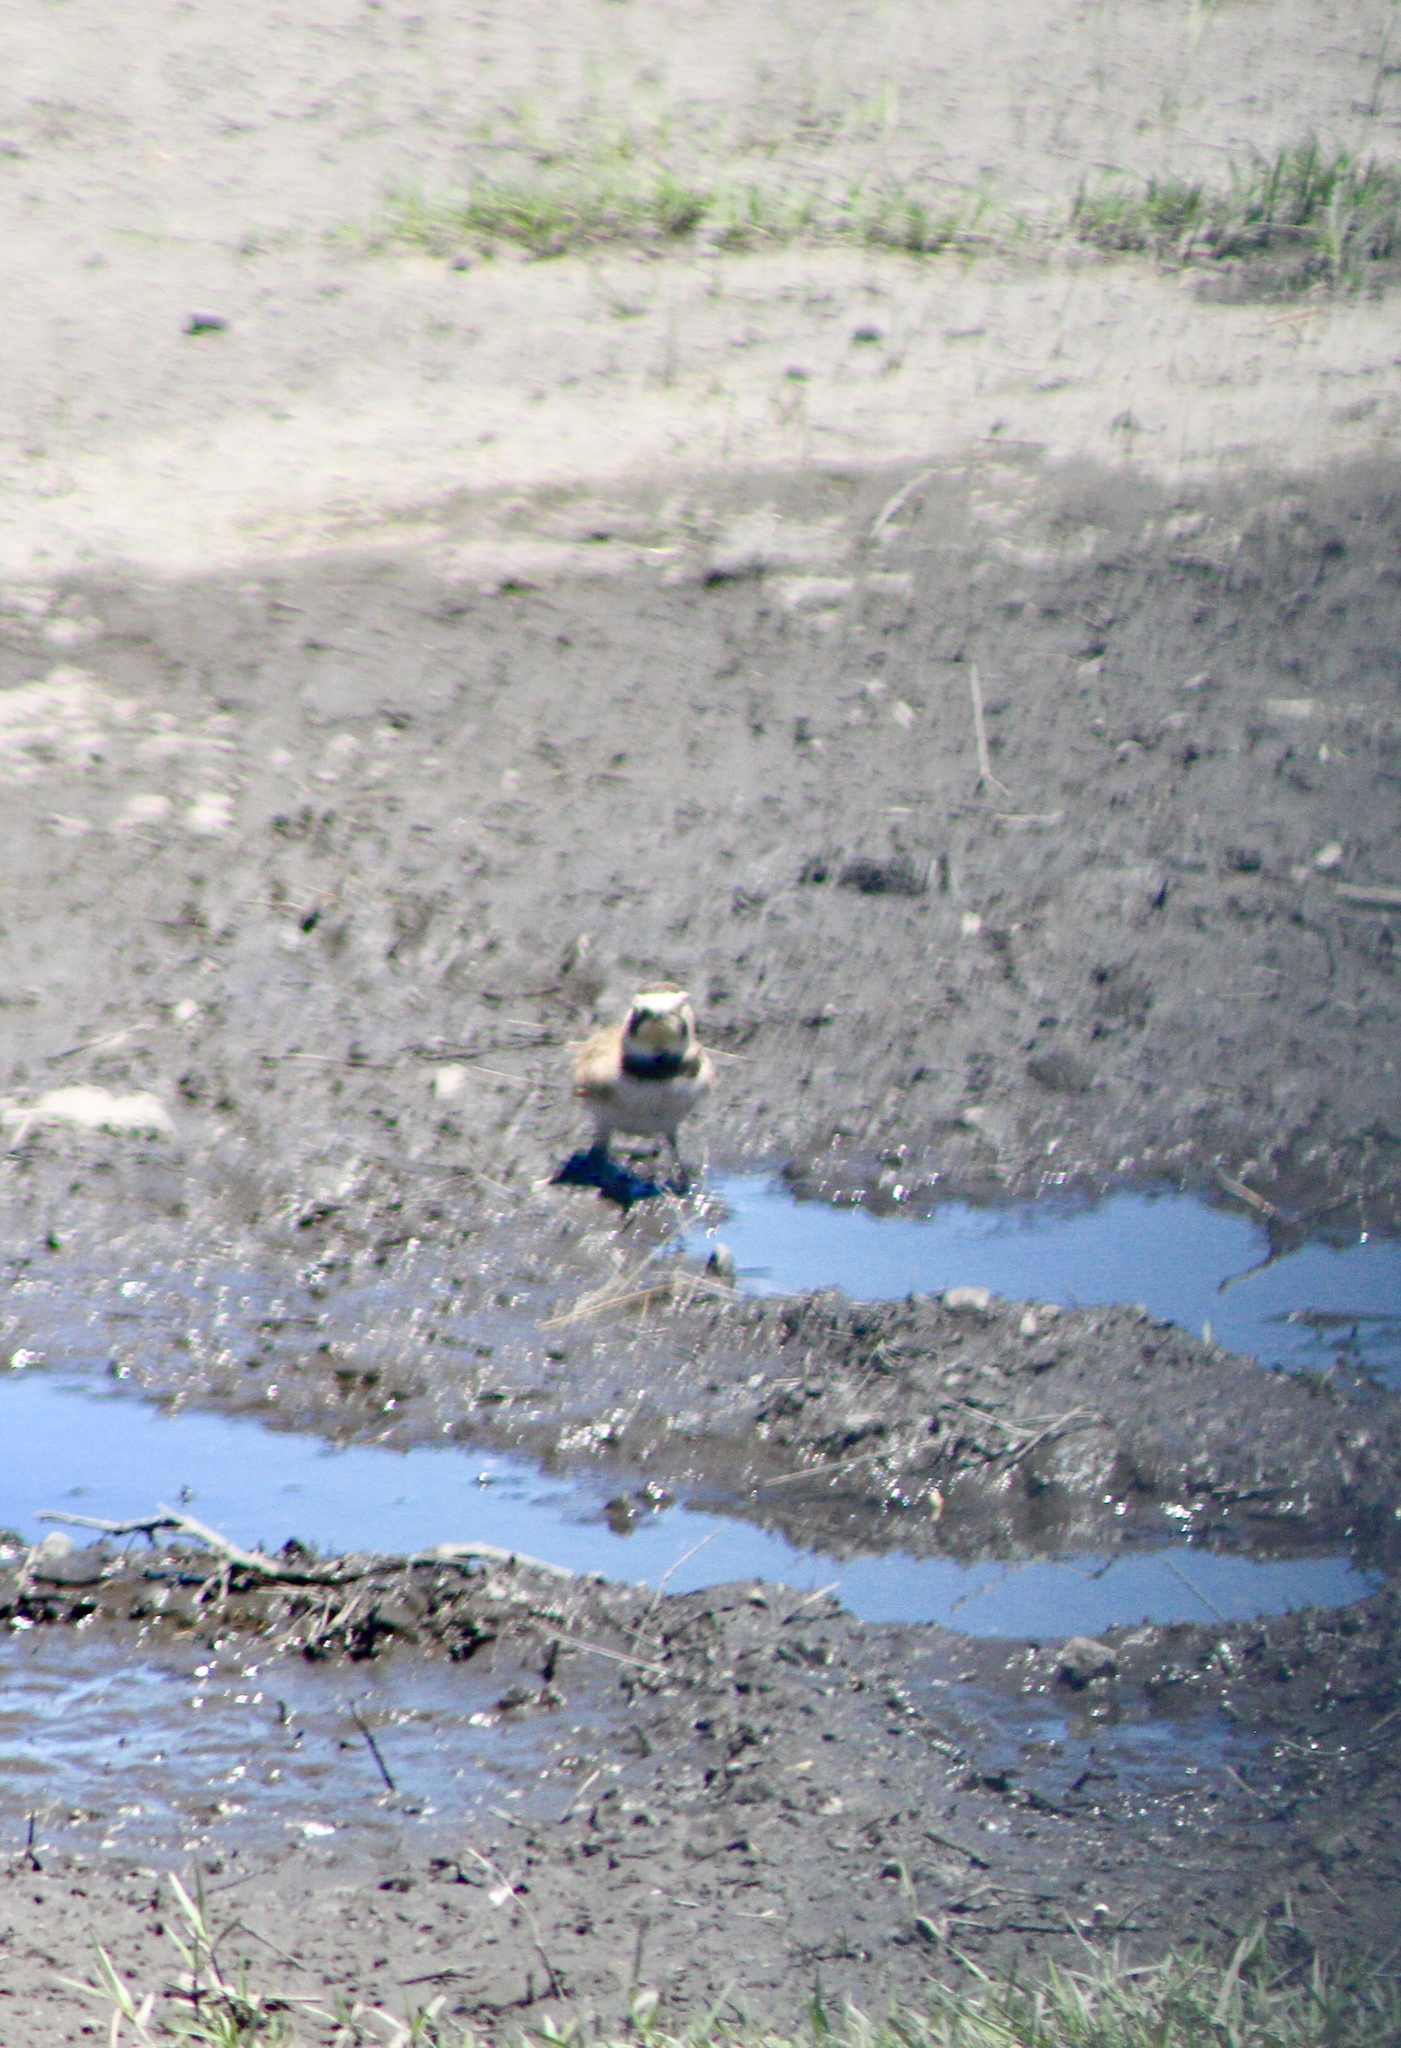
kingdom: Animalia
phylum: Chordata
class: Aves
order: Passeriformes
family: Alaudidae
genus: Eremophila
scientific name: Eremophila alpestris
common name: Horned lark
